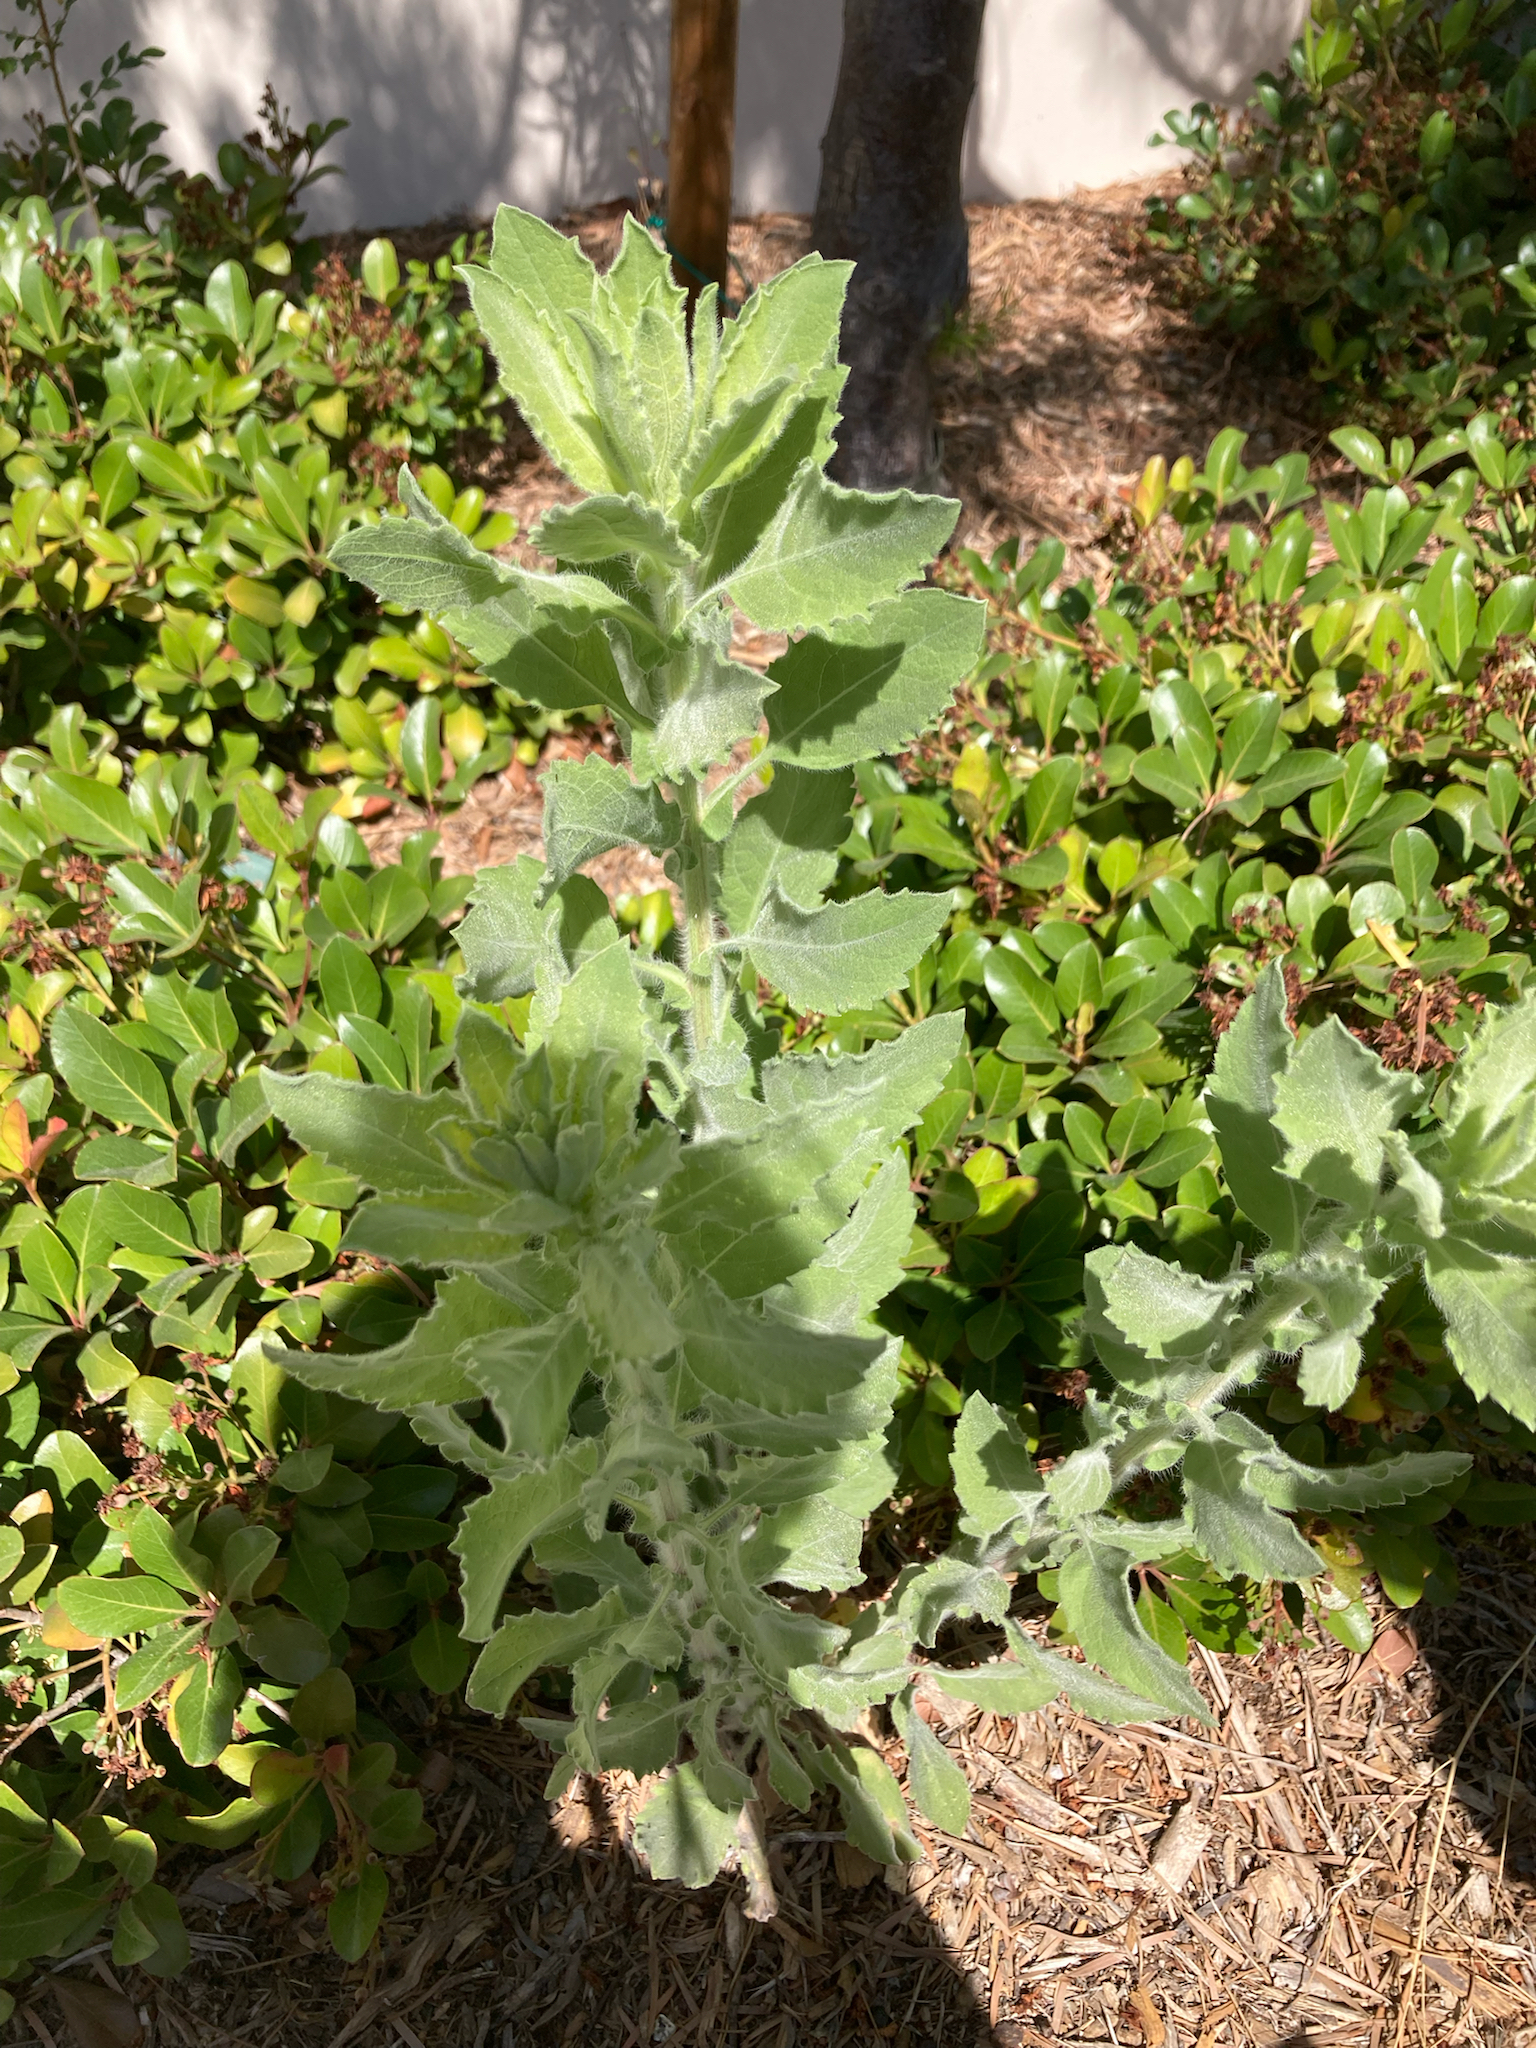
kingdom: Plantae
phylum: Tracheophyta
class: Magnoliopsida
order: Asterales
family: Asteraceae
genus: Heterotheca
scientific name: Heterotheca grandiflora
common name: Telegraphweed
